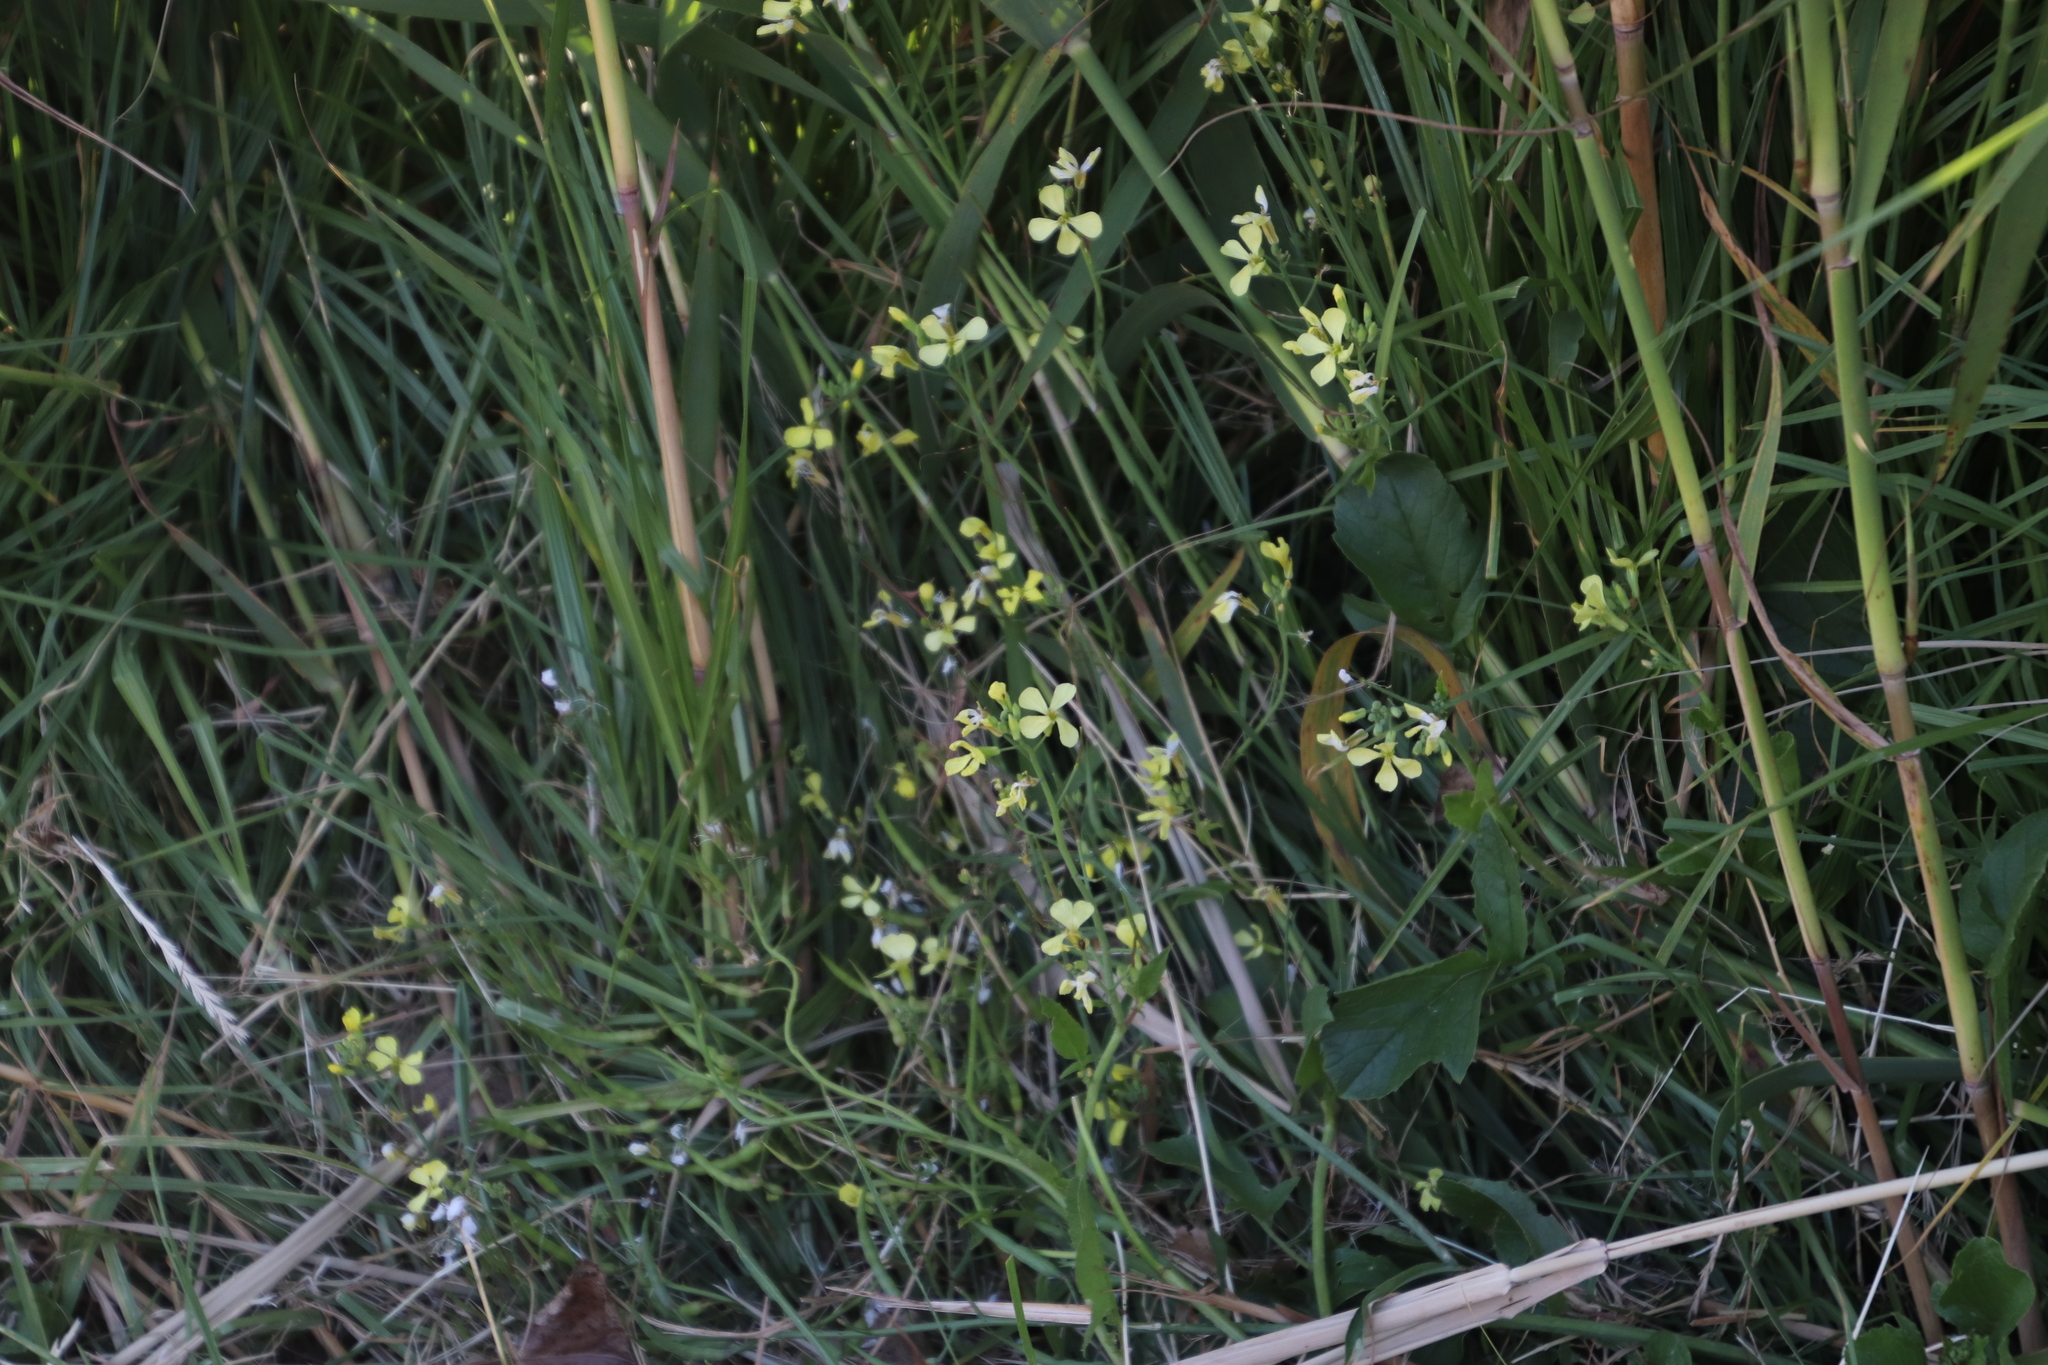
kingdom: Plantae
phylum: Tracheophyta
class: Magnoliopsida
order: Brassicales
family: Brassicaceae
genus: Raphanus
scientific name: Raphanus raphanistrum
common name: Wild radish
